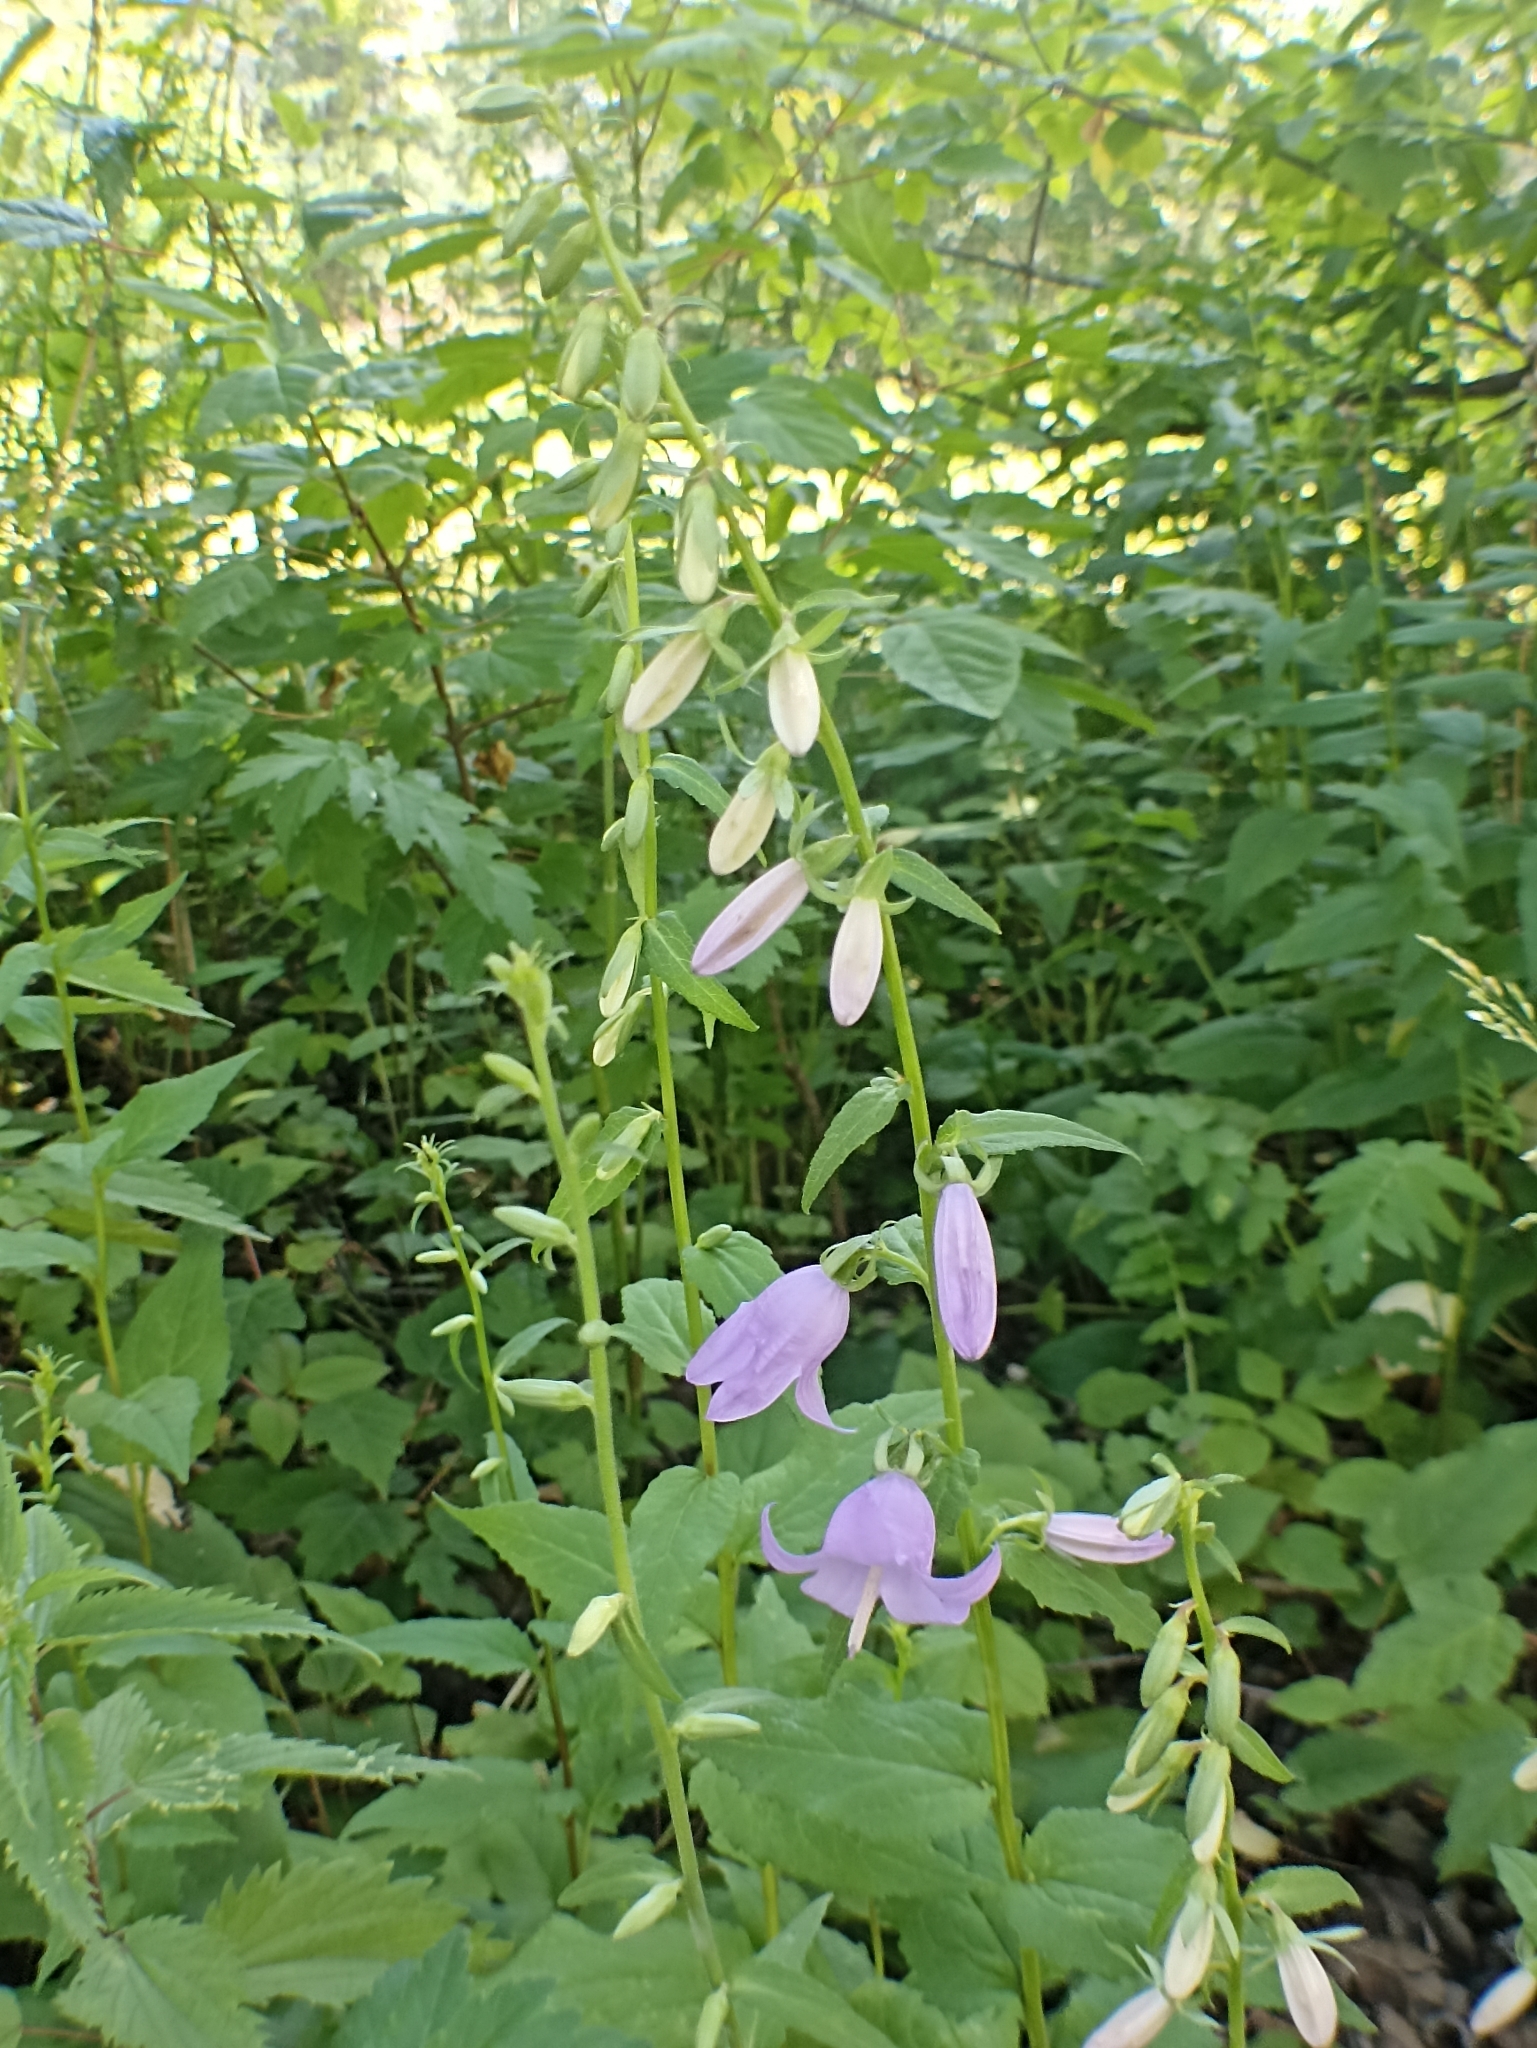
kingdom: Plantae
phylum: Tracheophyta
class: Magnoliopsida
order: Asterales
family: Campanulaceae
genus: Campanula
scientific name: Campanula rapunculoides
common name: Creeping bellflower
